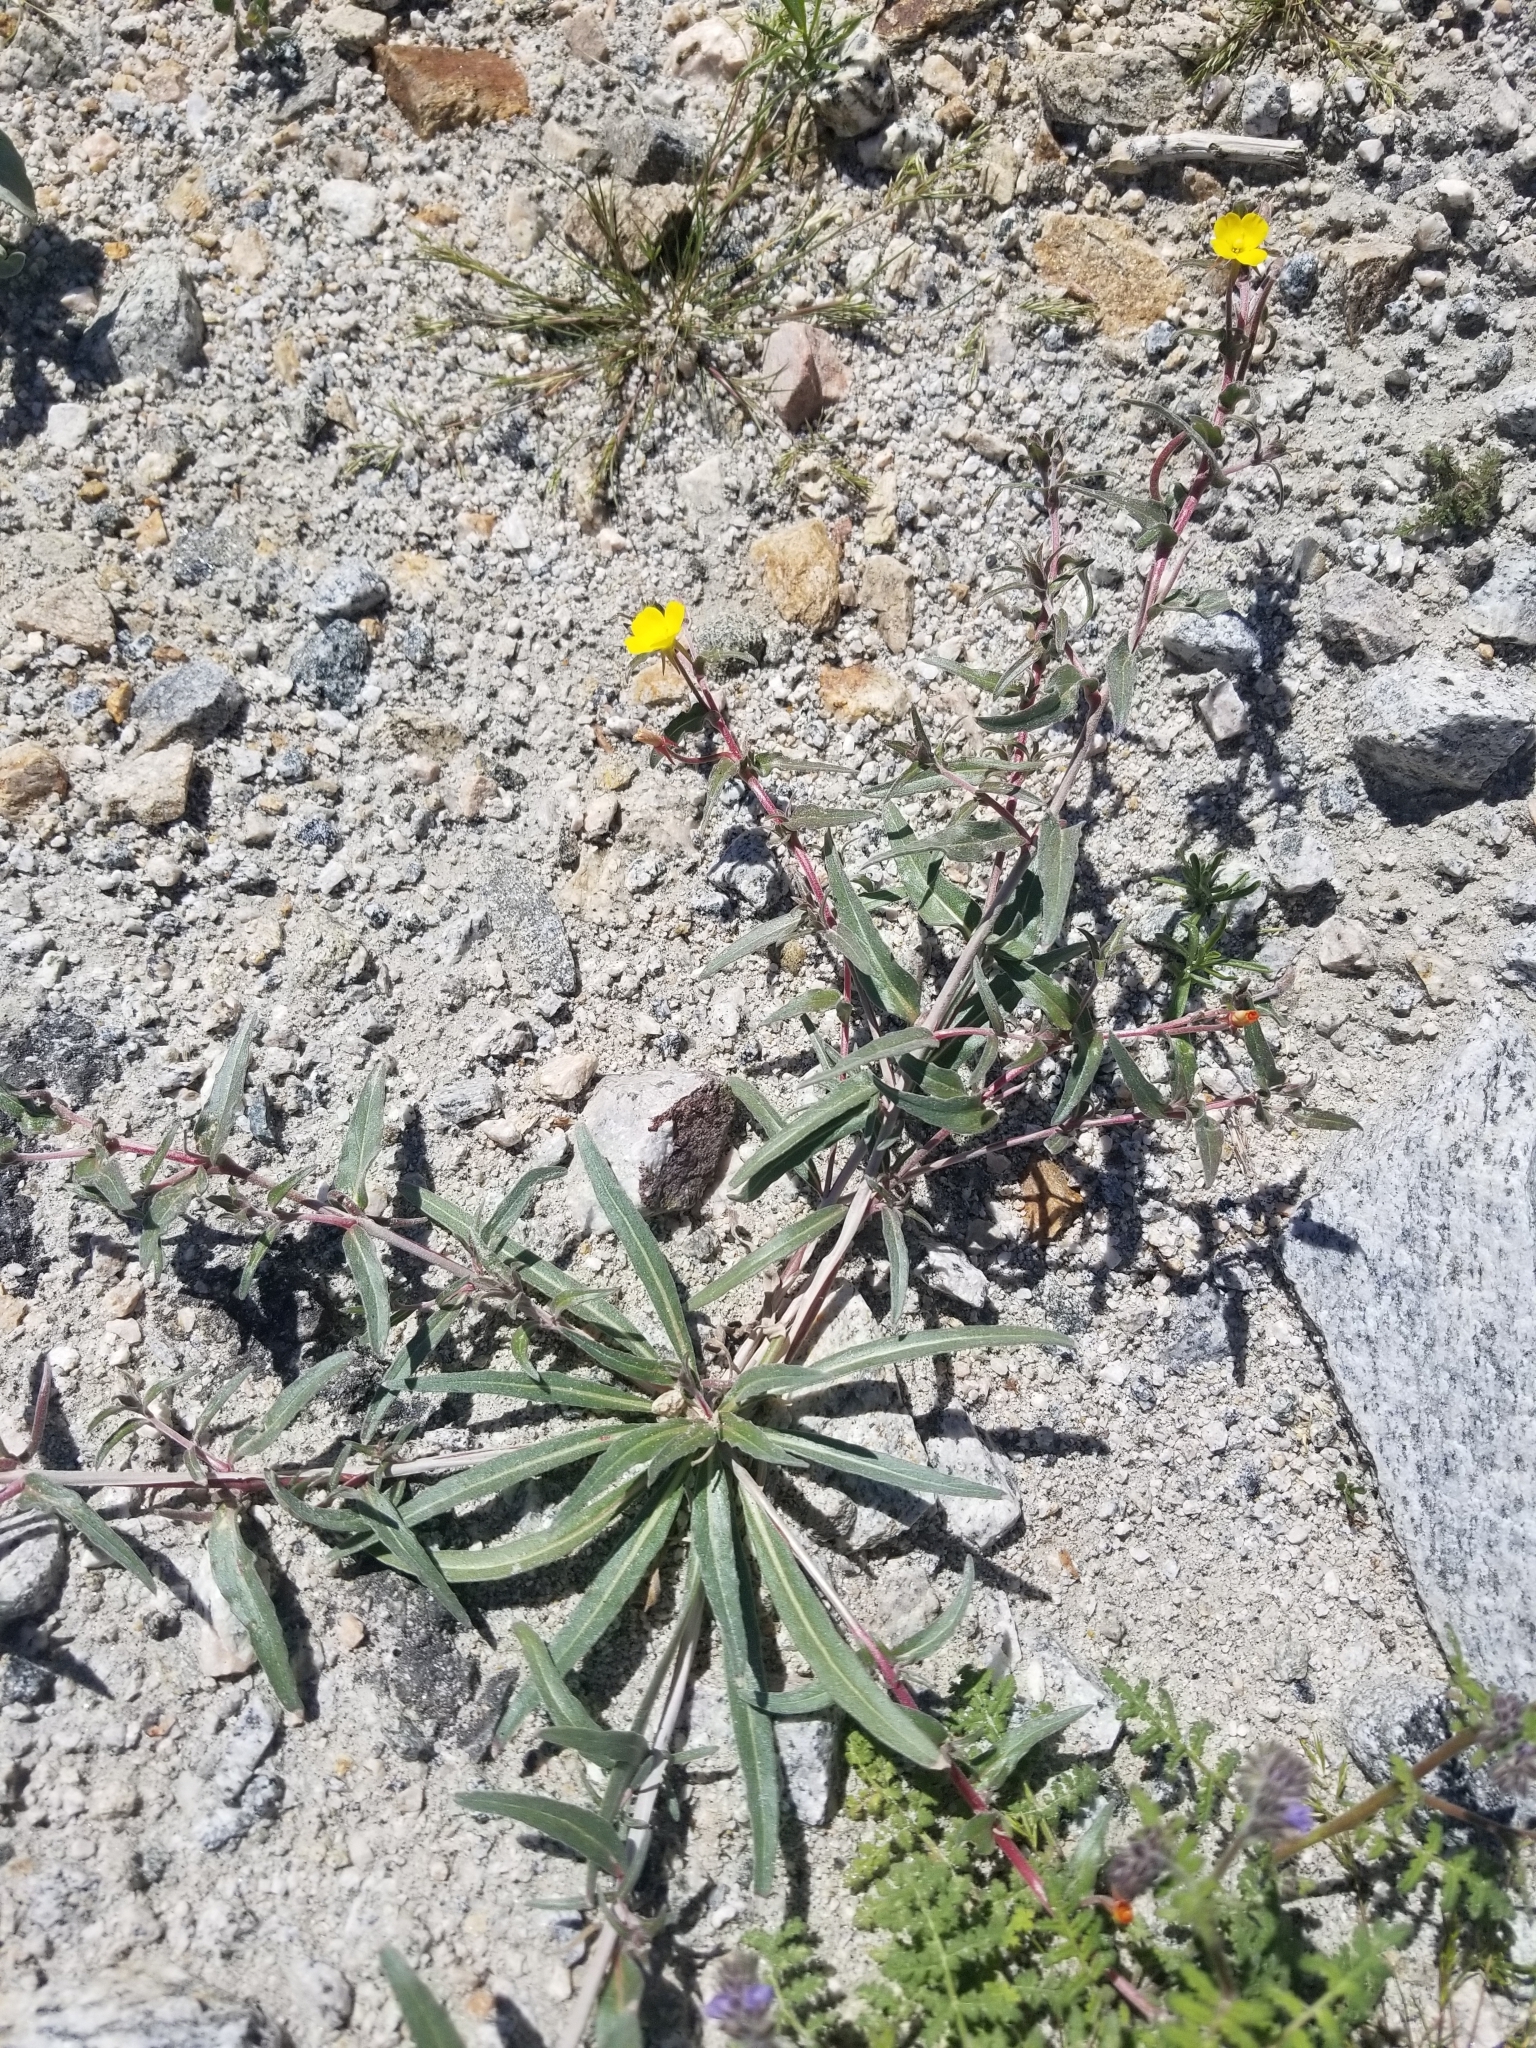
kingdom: Plantae
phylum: Tracheophyta
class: Magnoliopsida
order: Myrtales
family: Onagraceae
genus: Camissoniopsis
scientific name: Camissoniopsis bistorta
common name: Southern suncup
